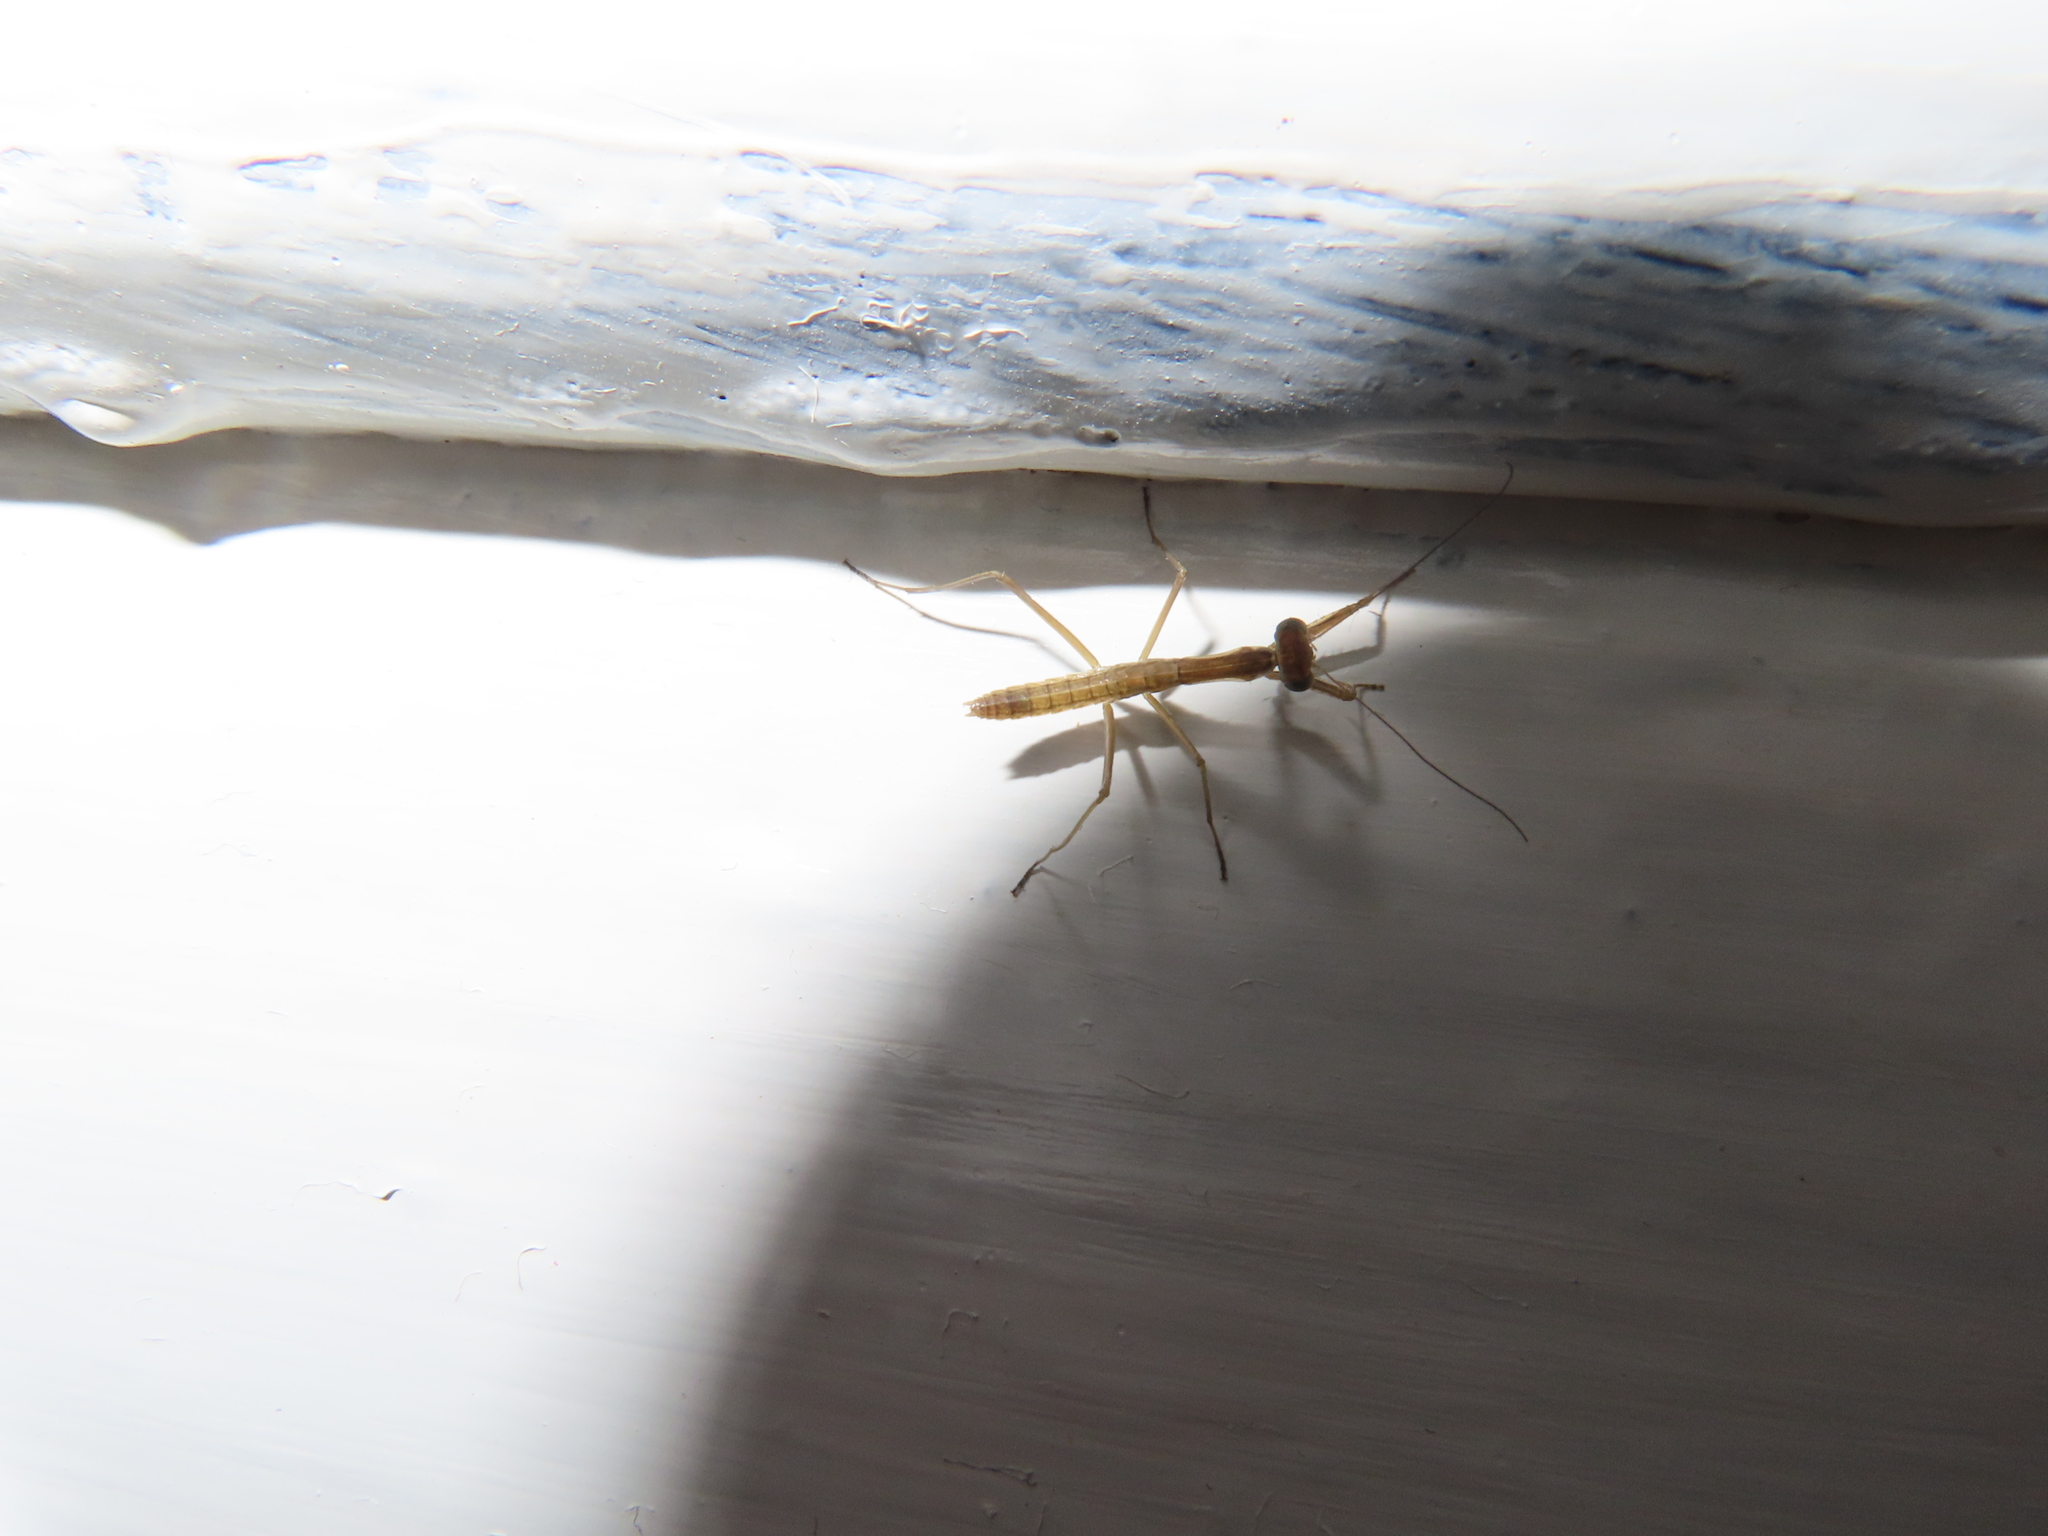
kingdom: Animalia
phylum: Arthropoda
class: Insecta
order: Mantodea
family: Mantidae
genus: Tenodera
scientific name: Tenodera sinensis
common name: Chinese mantis
